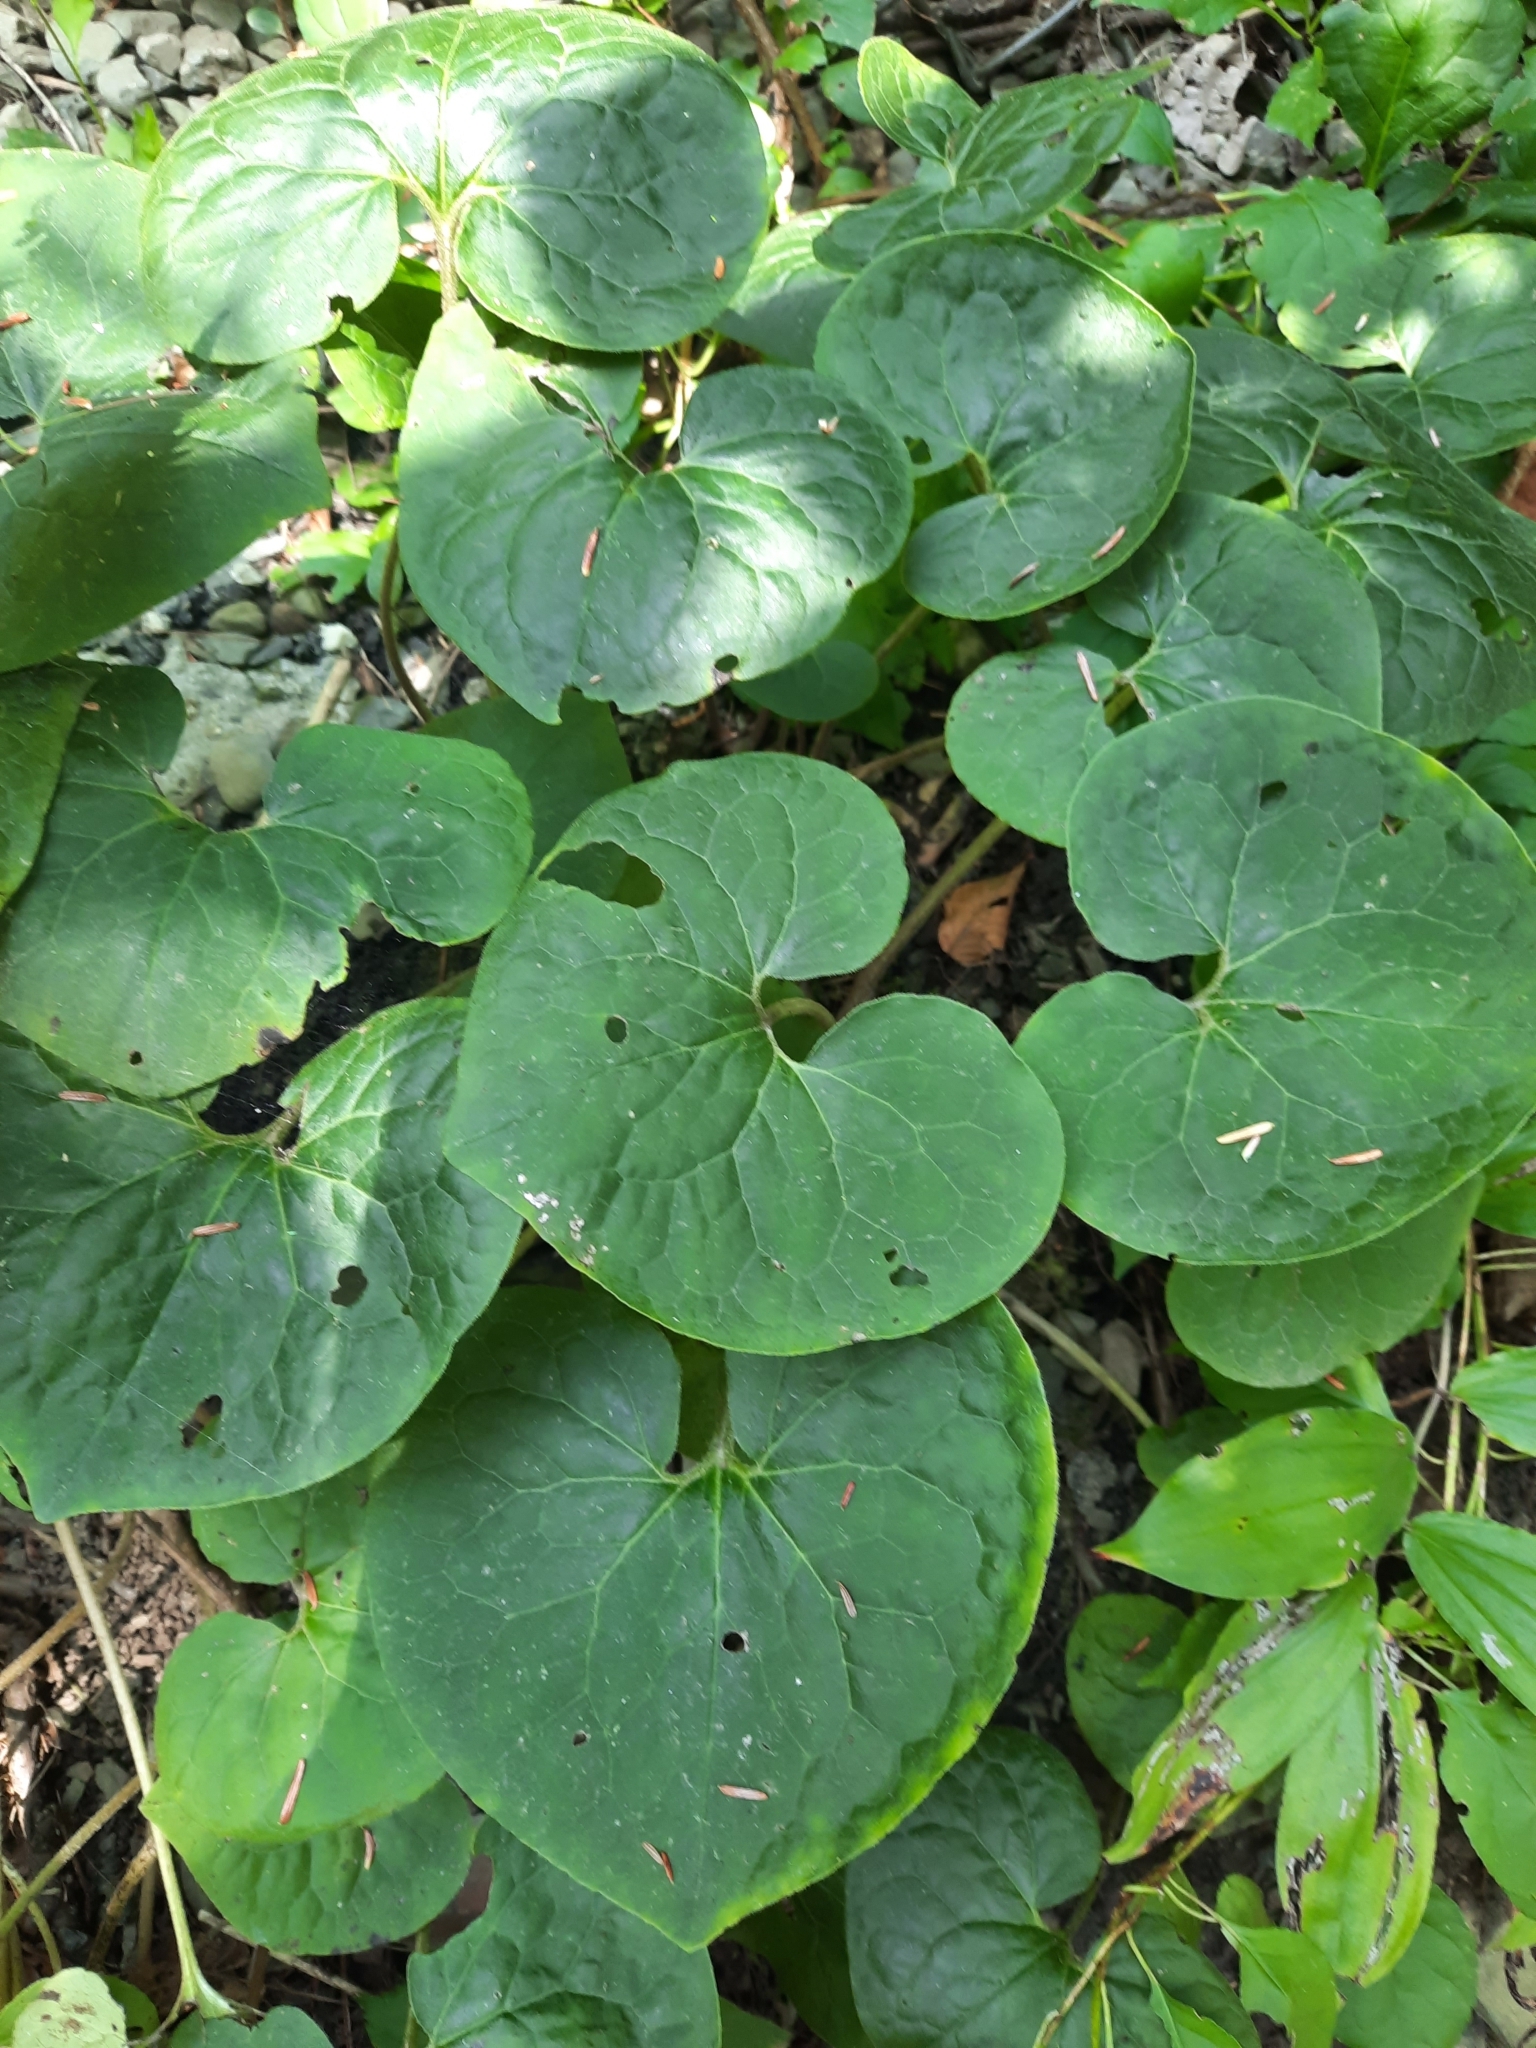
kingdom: Plantae
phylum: Tracheophyta
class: Magnoliopsida
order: Piperales
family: Aristolochiaceae
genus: Asarum
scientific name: Asarum canadense
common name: Wild ginger
